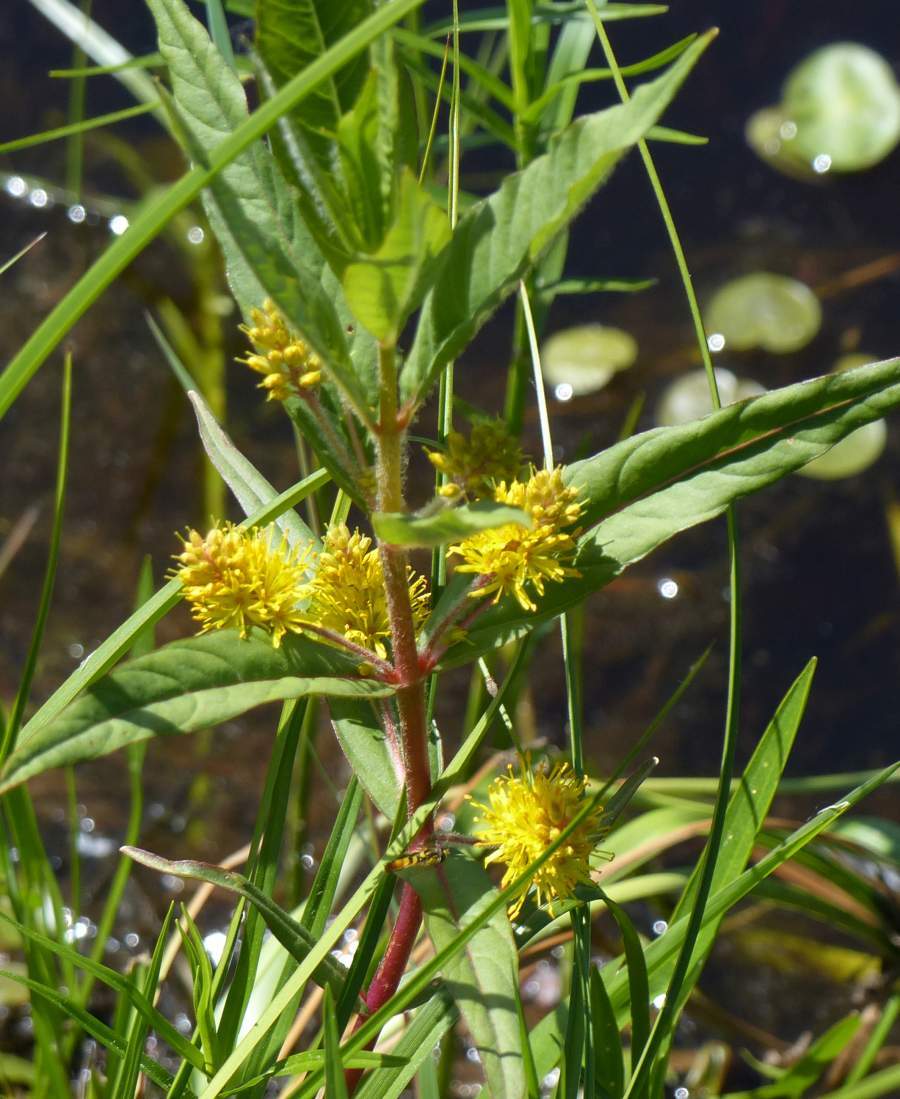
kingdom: Plantae
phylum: Tracheophyta
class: Magnoliopsida
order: Ericales
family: Primulaceae
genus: Lysimachia
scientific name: Lysimachia thyrsiflora
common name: Tufted loosestrife
